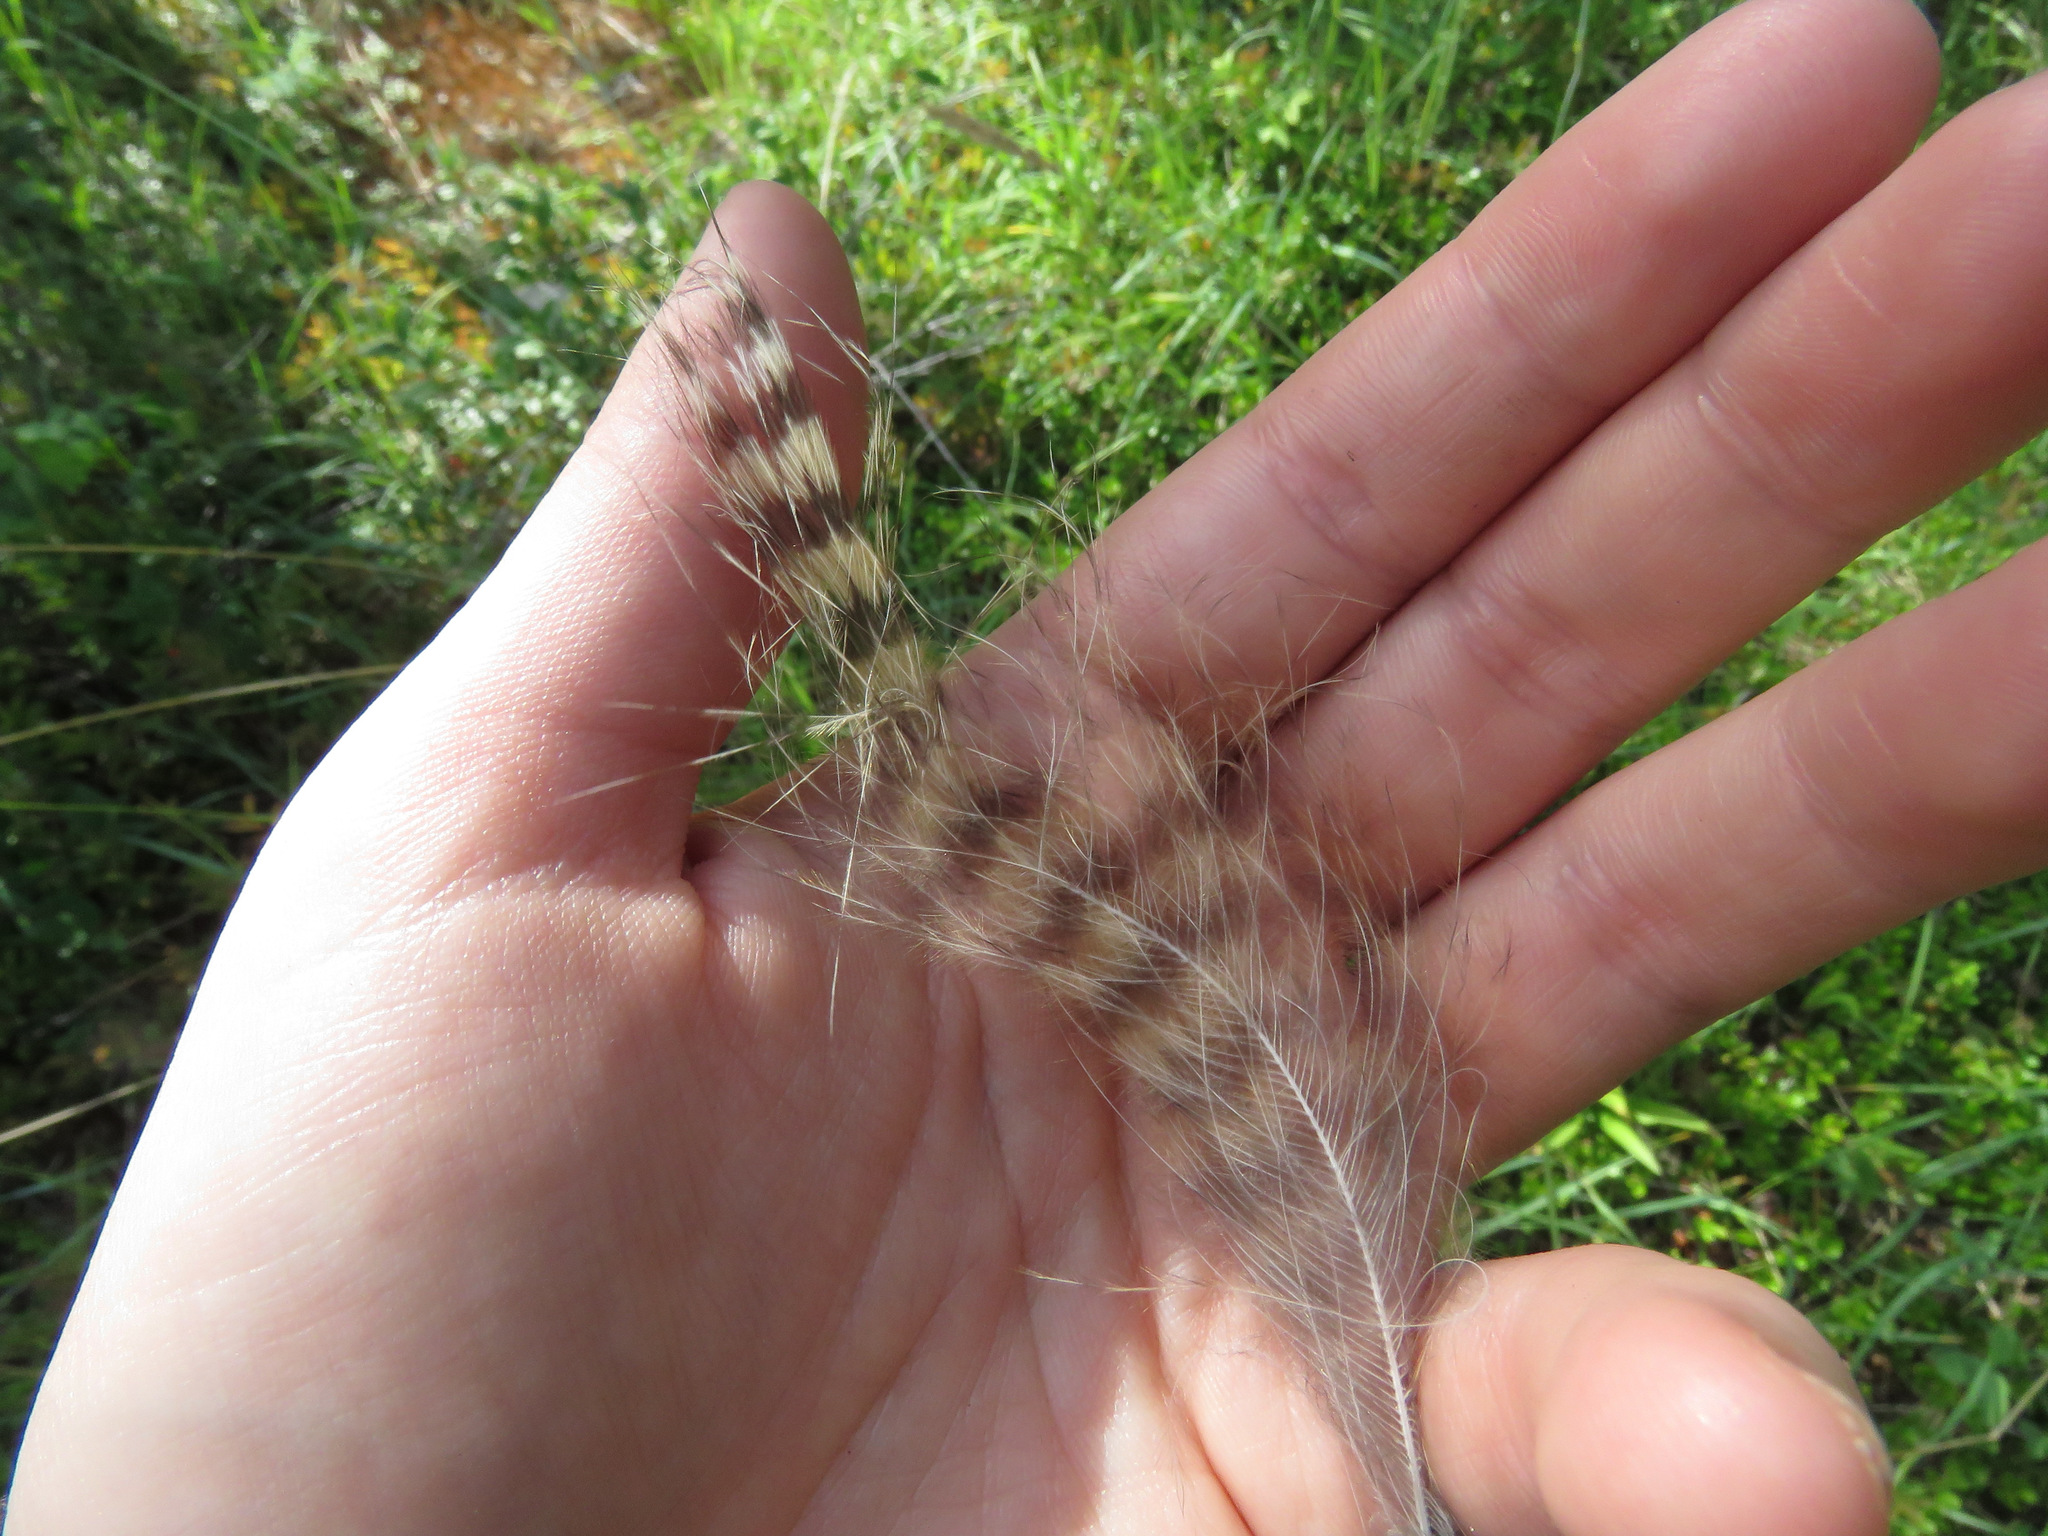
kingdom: Animalia
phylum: Chordata
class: Aves
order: Strigiformes
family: Strigidae
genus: Bubo
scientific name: Bubo virginianus
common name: Great horned owl
